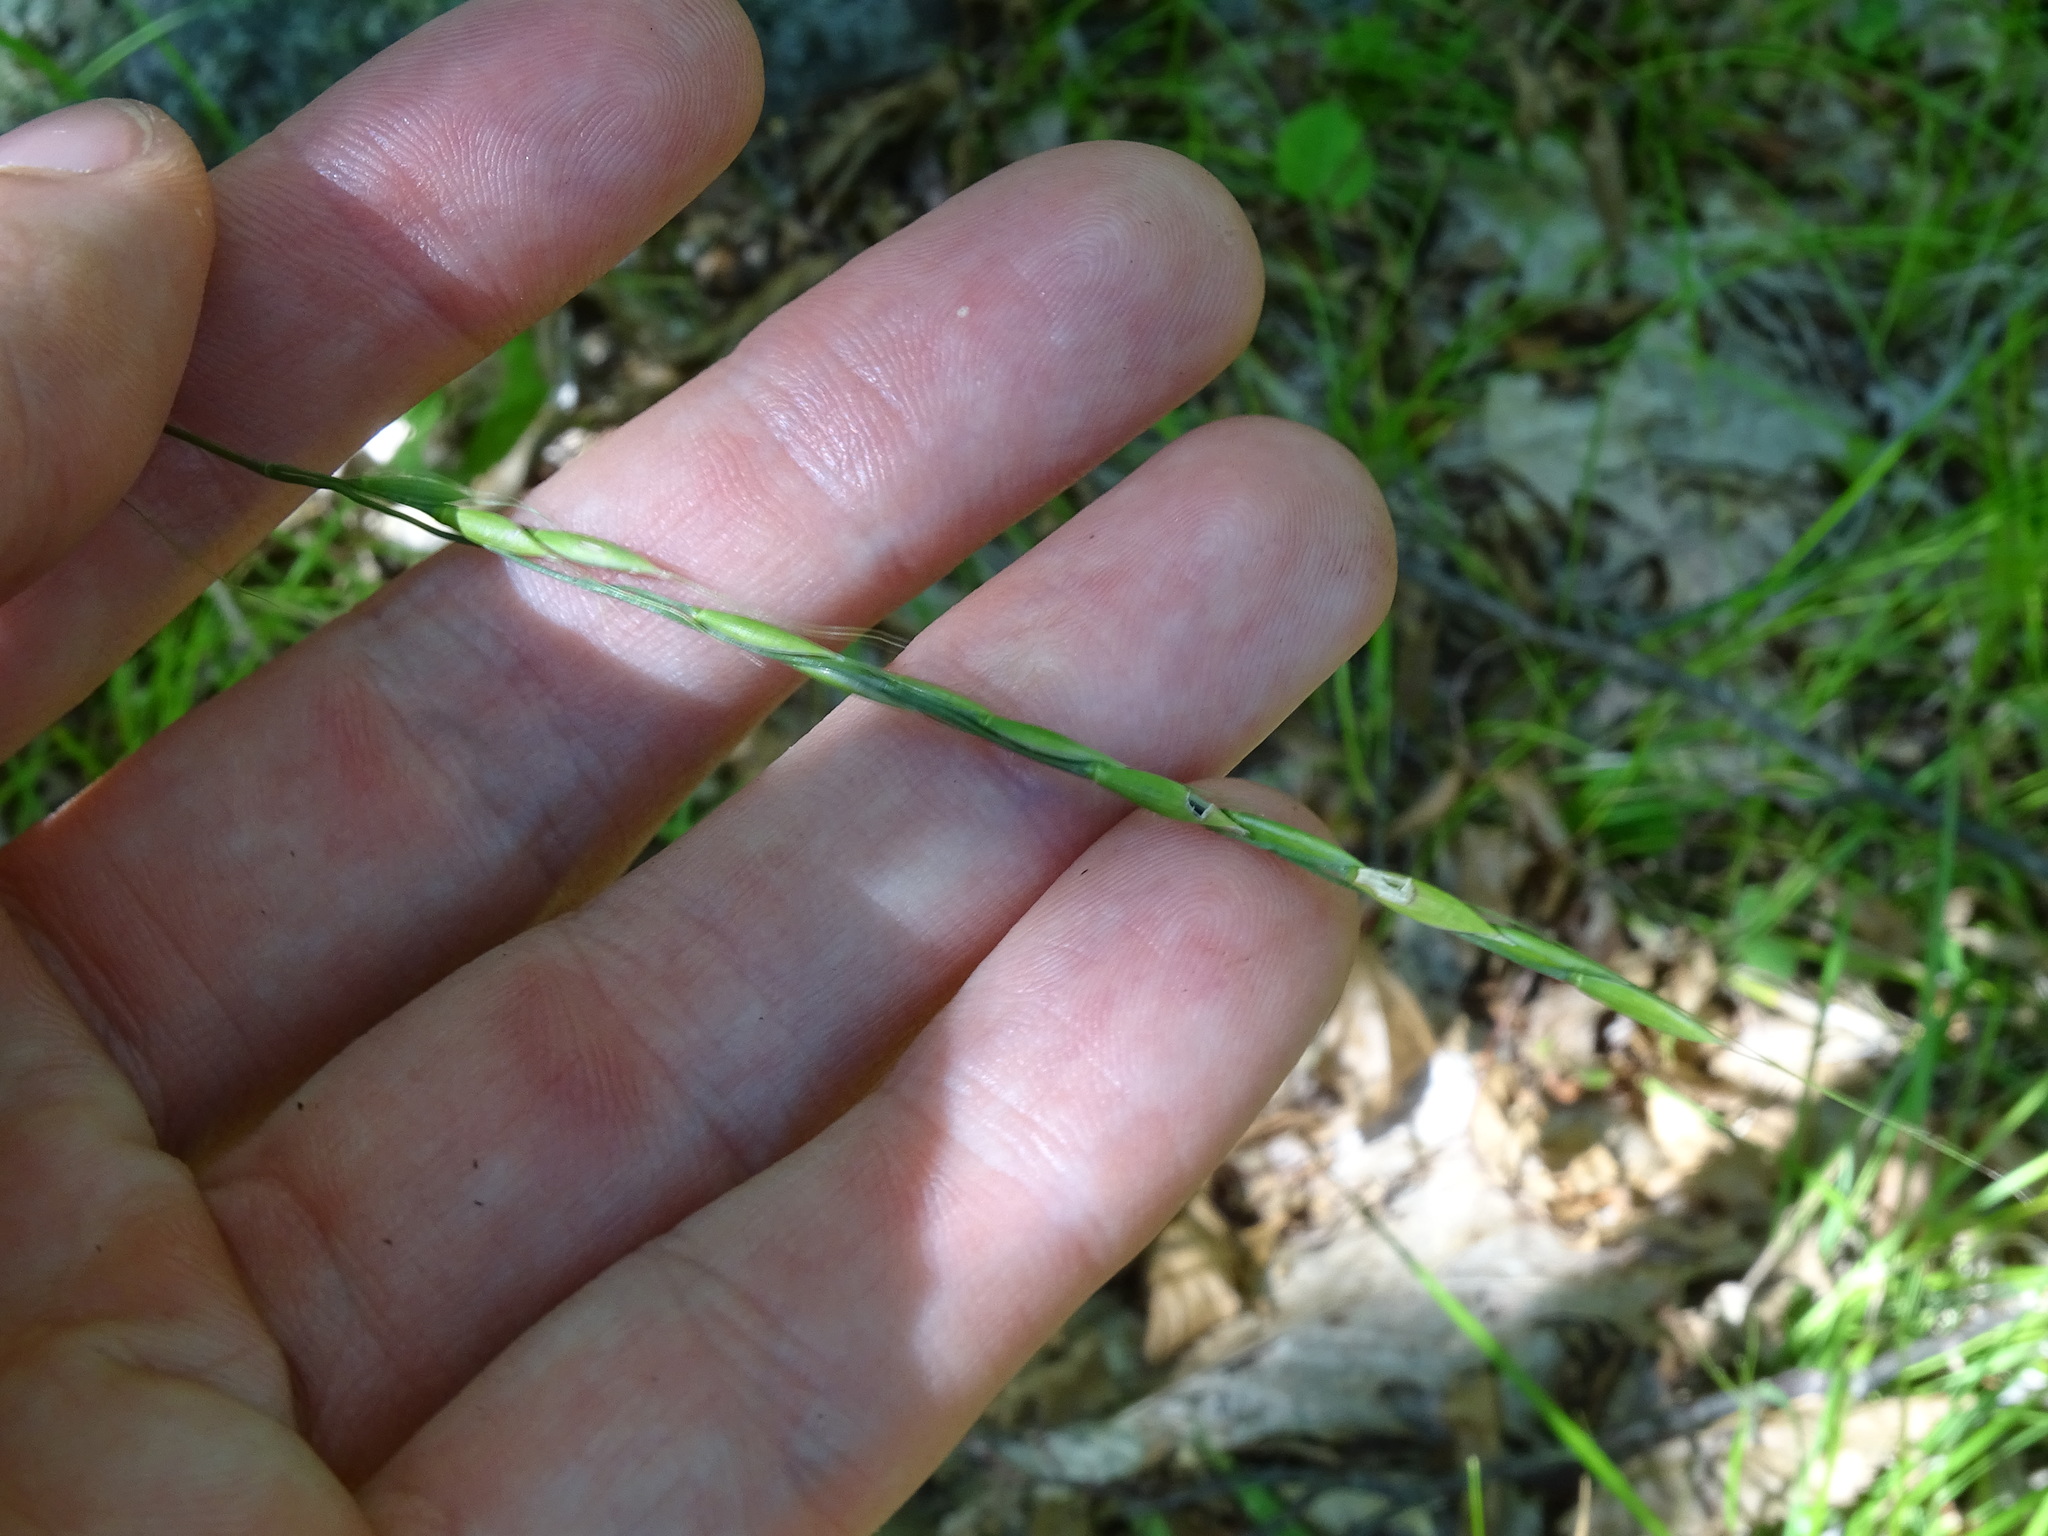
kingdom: Plantae
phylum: Tracheophyta
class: Liliopsida
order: Poales
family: Poaceae
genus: Patis
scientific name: Patis racemosa
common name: Black-fruited mountain rice
